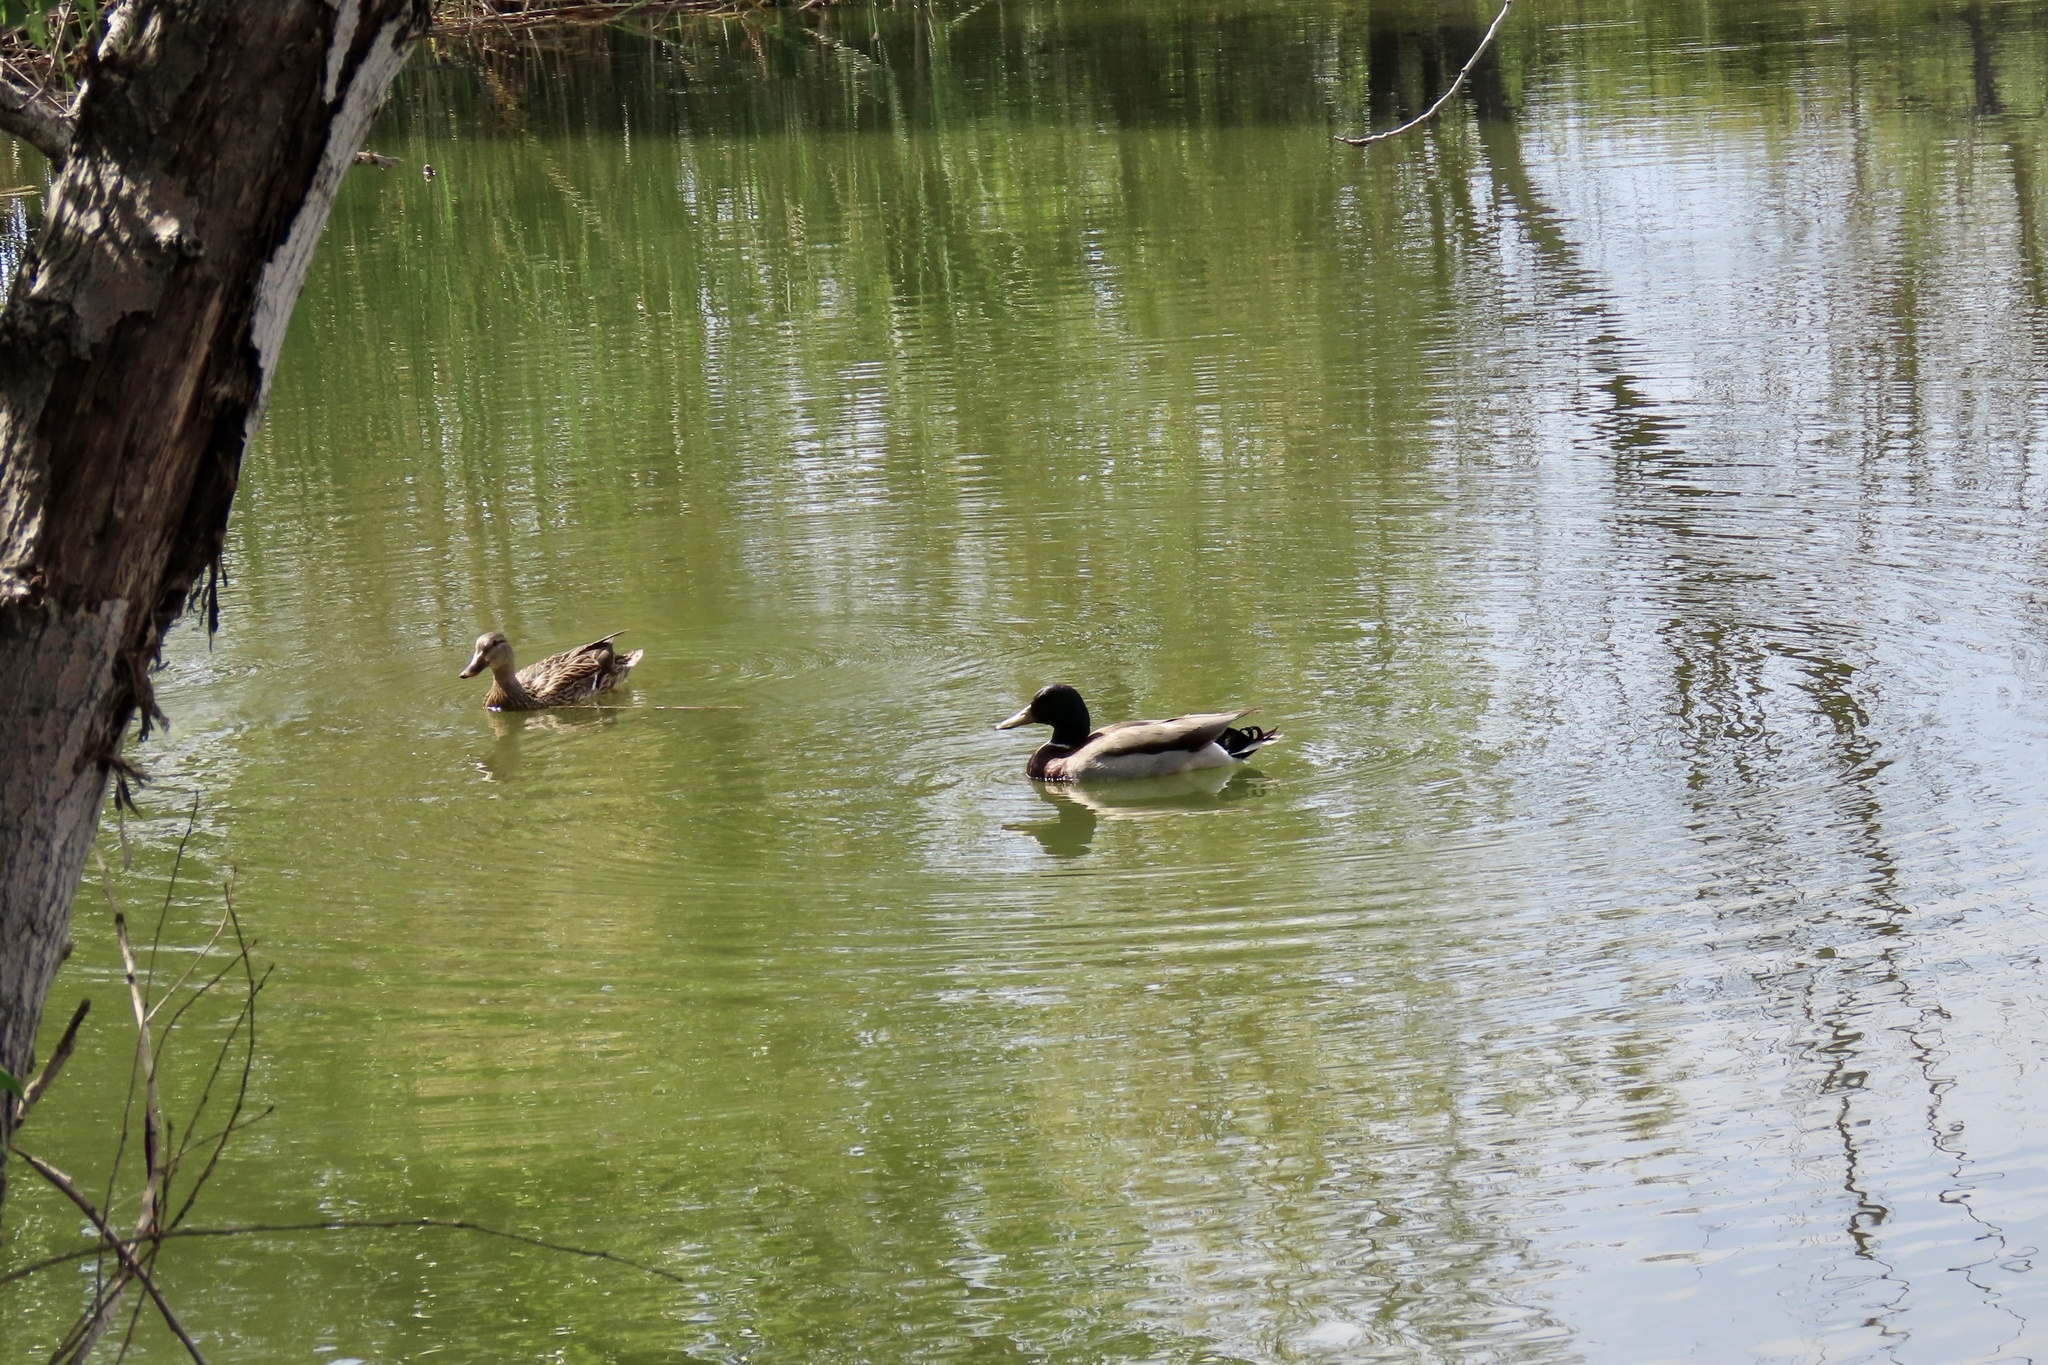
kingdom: Animalia
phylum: Chordata
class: Aves
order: Anseriformes
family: Anatidae
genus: Anas
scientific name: Anas platyrhynchos
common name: Mallard
